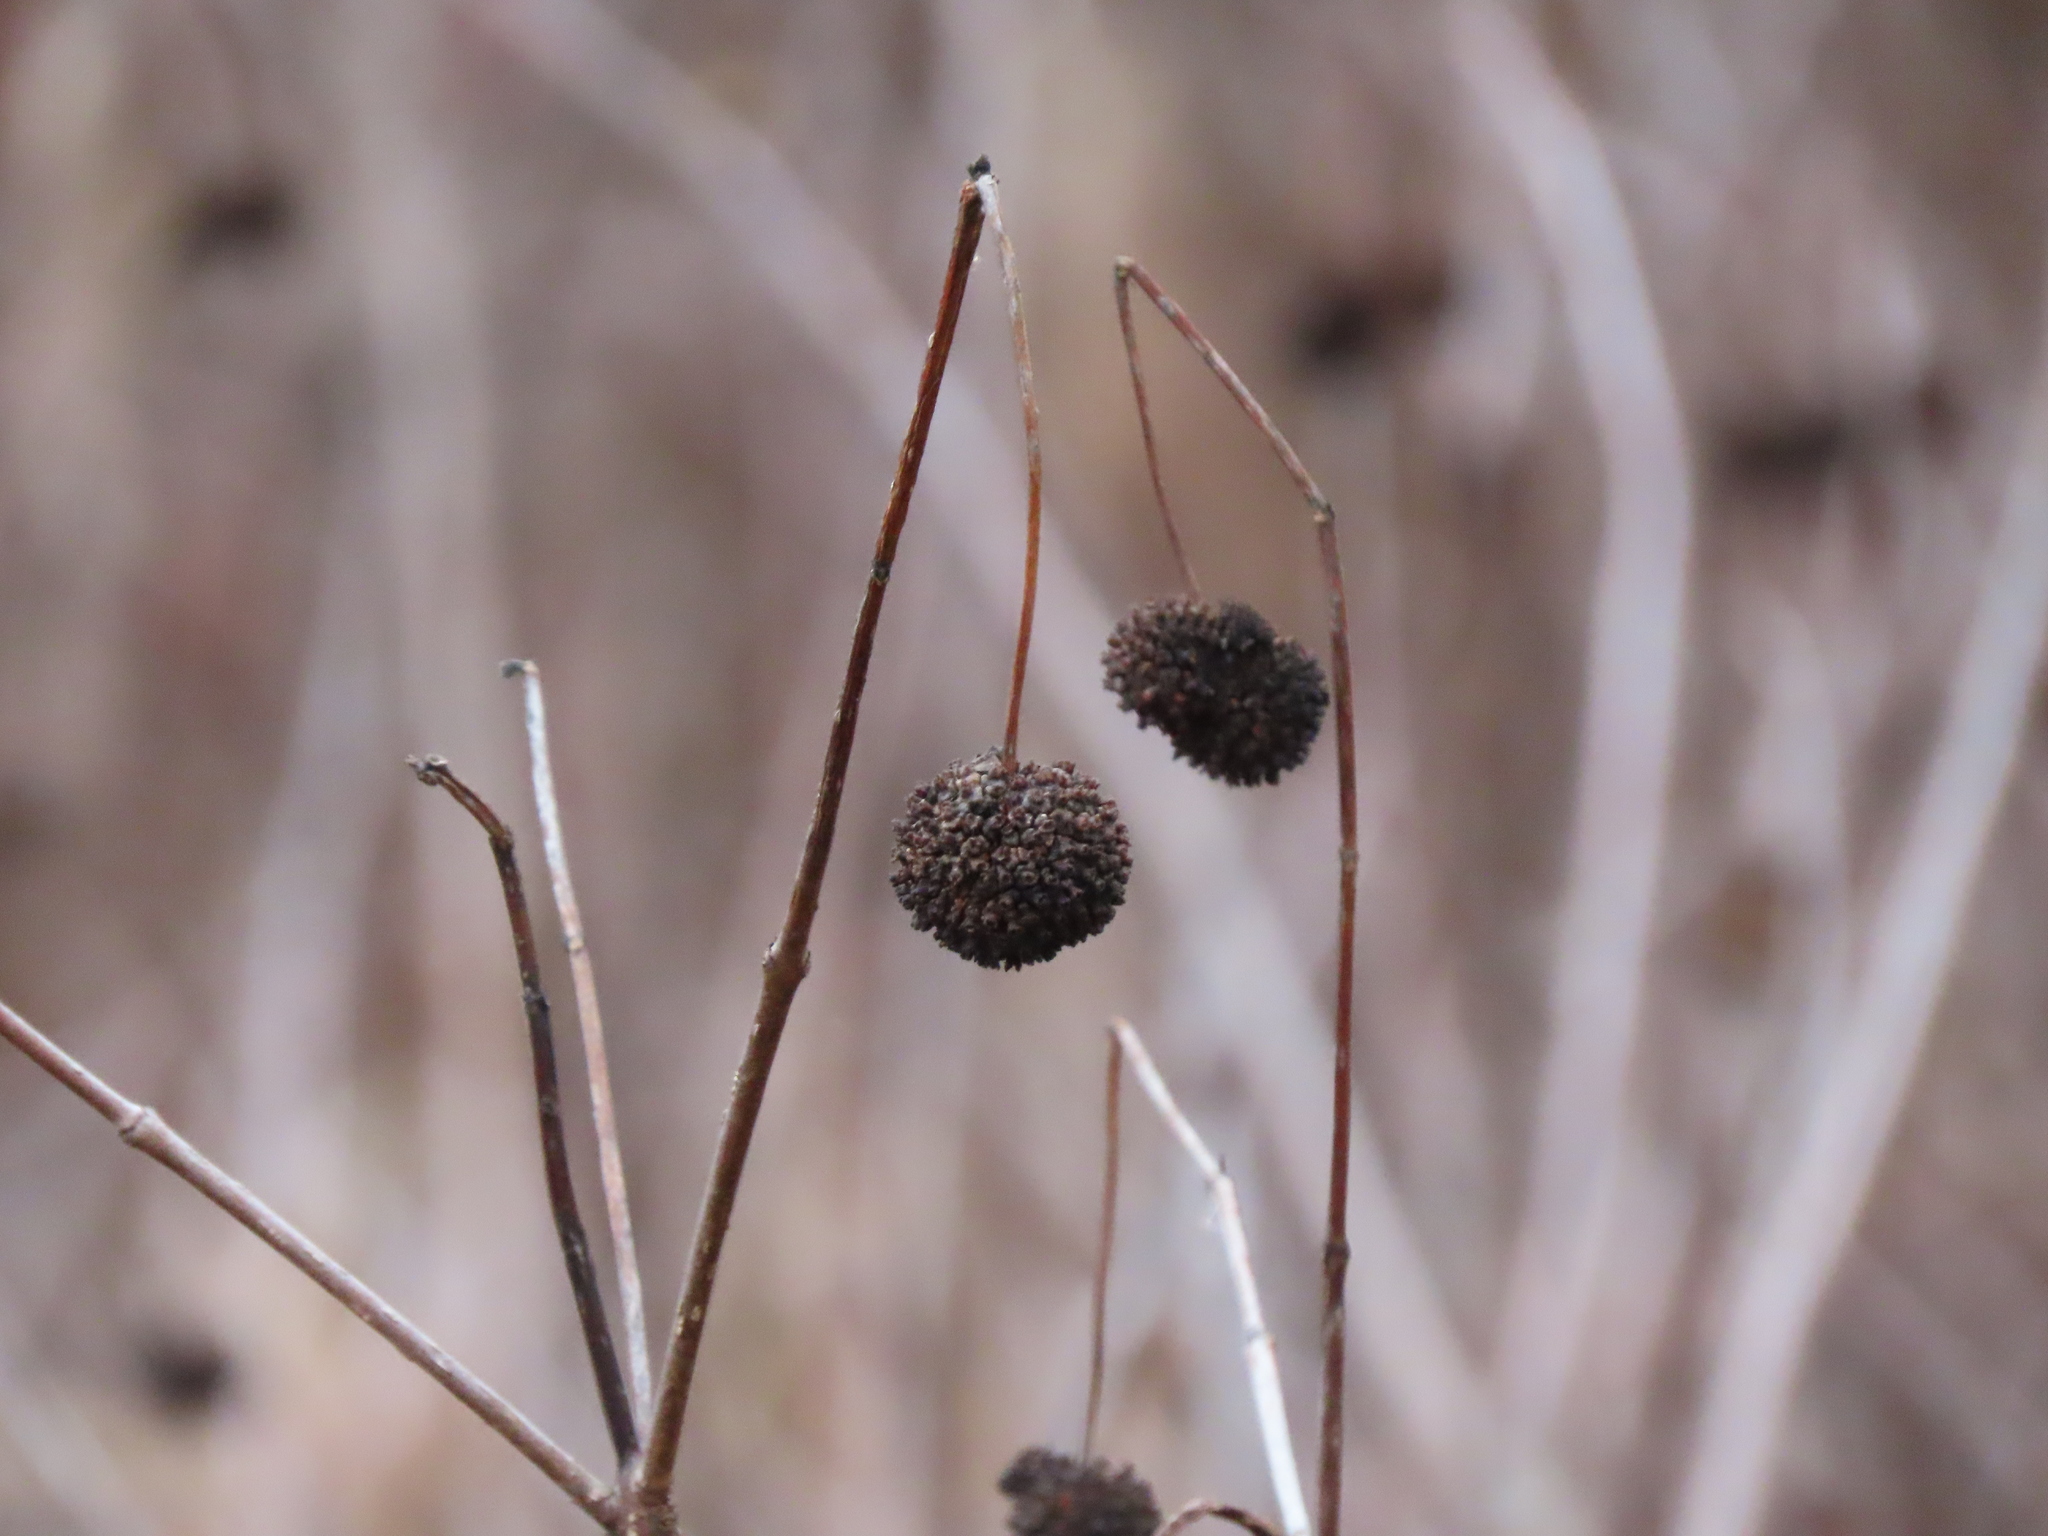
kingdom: Plantae
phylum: Tracheophyta
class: Magnoliopsida
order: Gentianales
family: Rubiaceae
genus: Cephalanthus
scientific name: Cephalanthus occidentalis
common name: Button-willow
